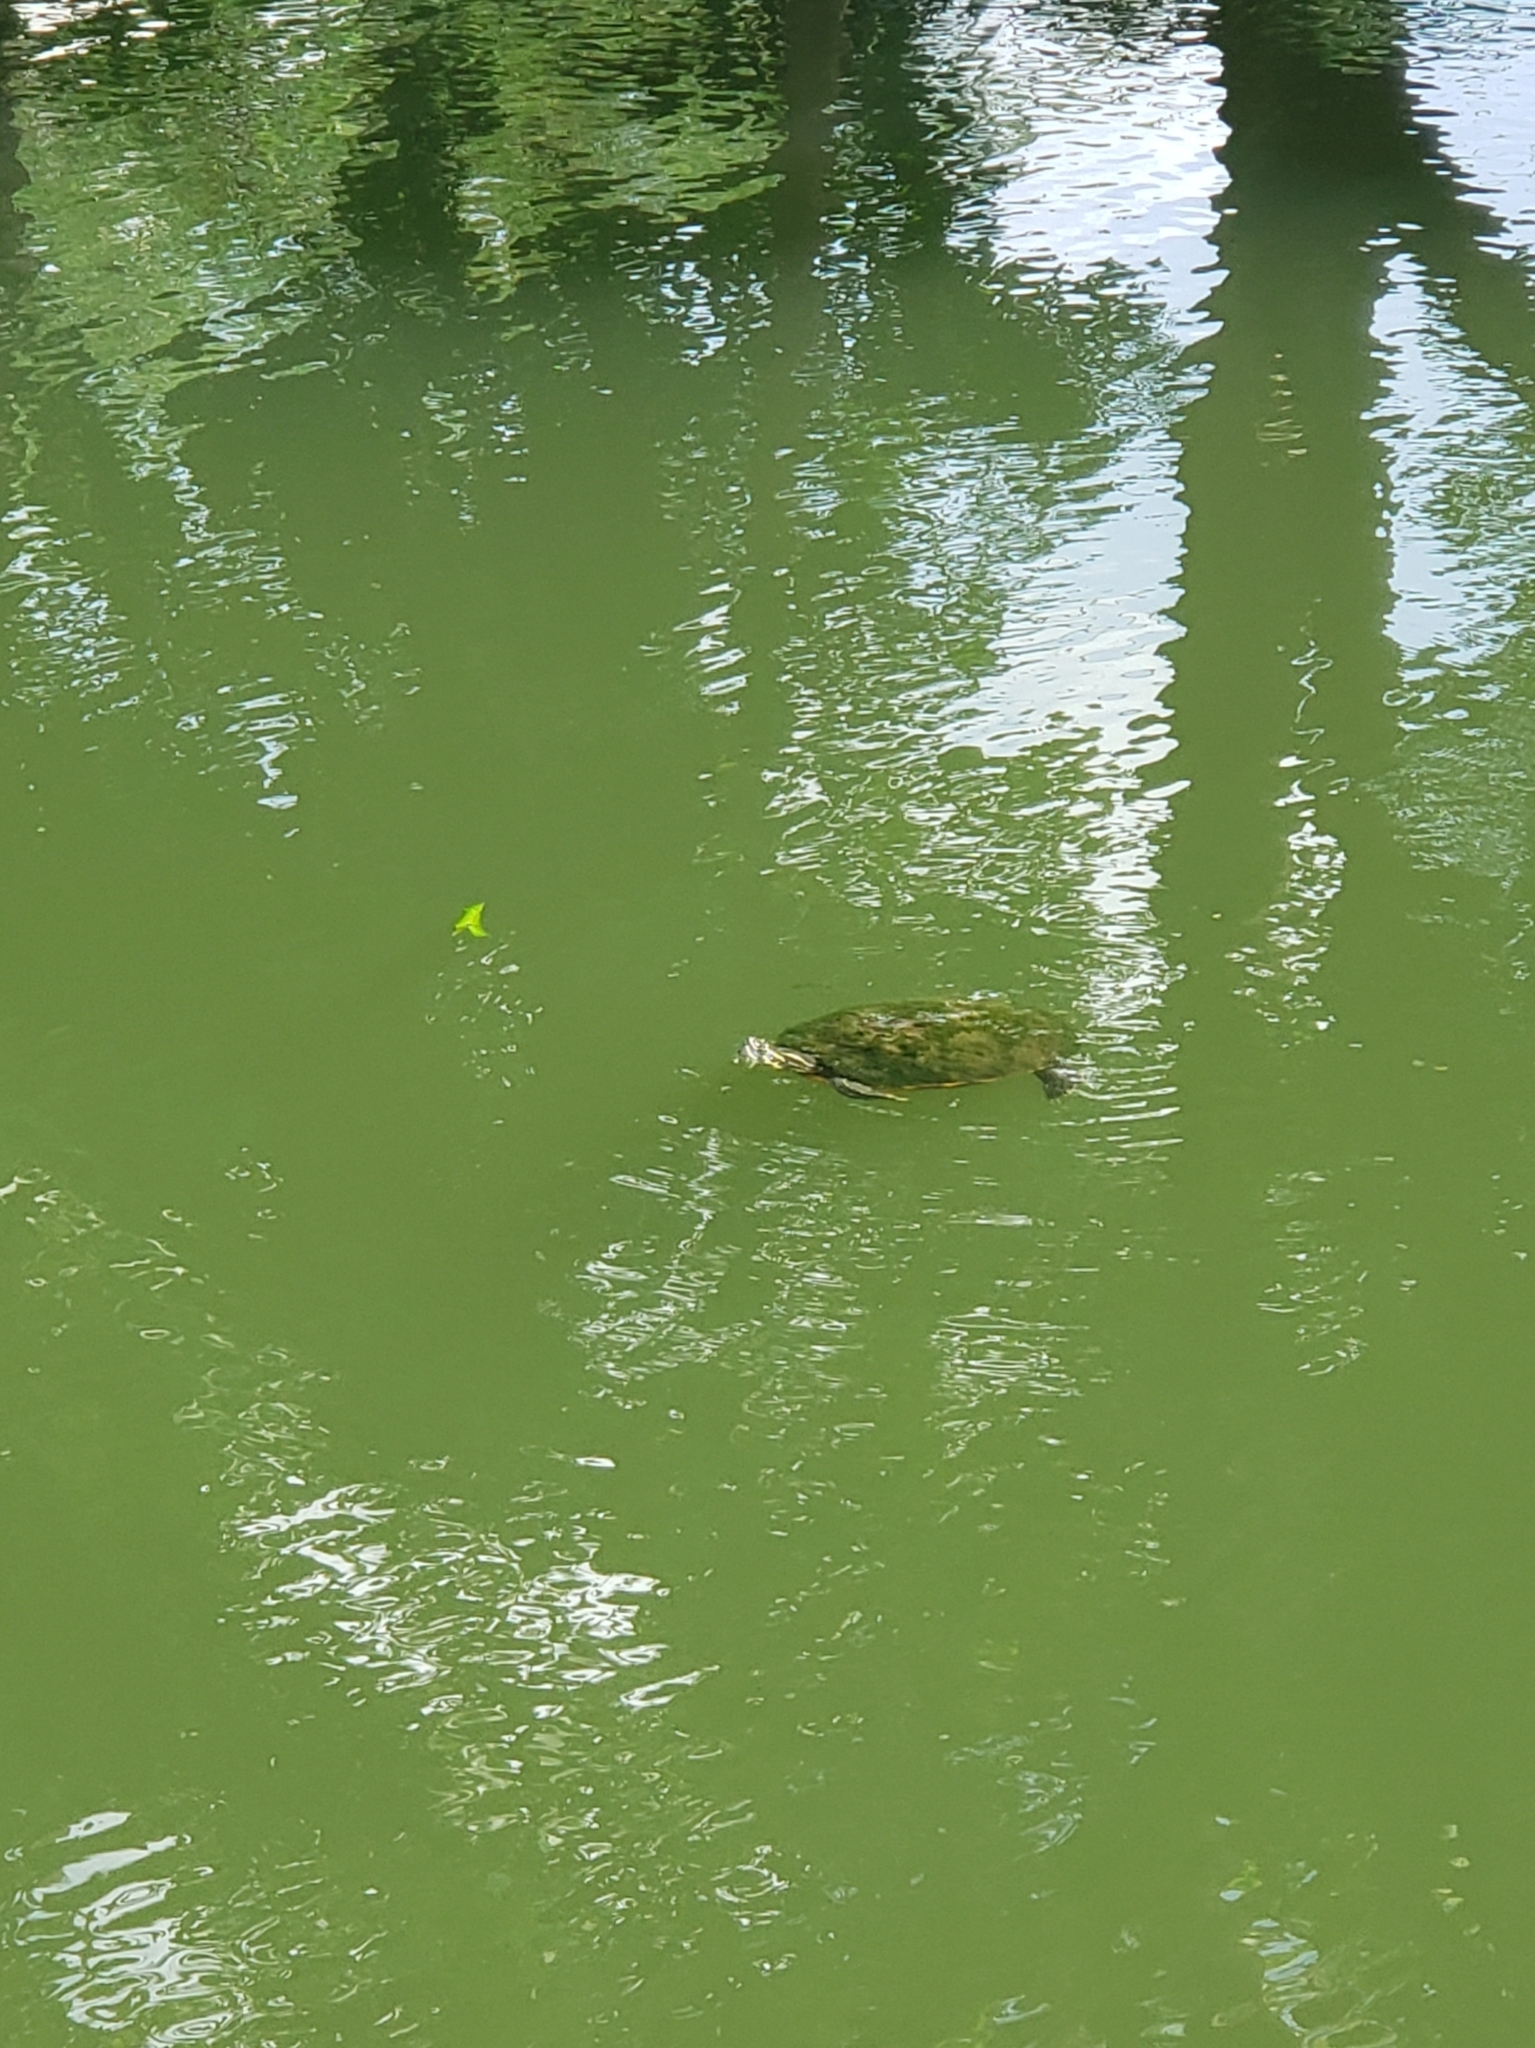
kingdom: Animalia
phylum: Chordata
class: Testudines
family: Emydidae
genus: Pseudemys
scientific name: Pseudemys nelsoni
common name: Florida red-bellied turtle
